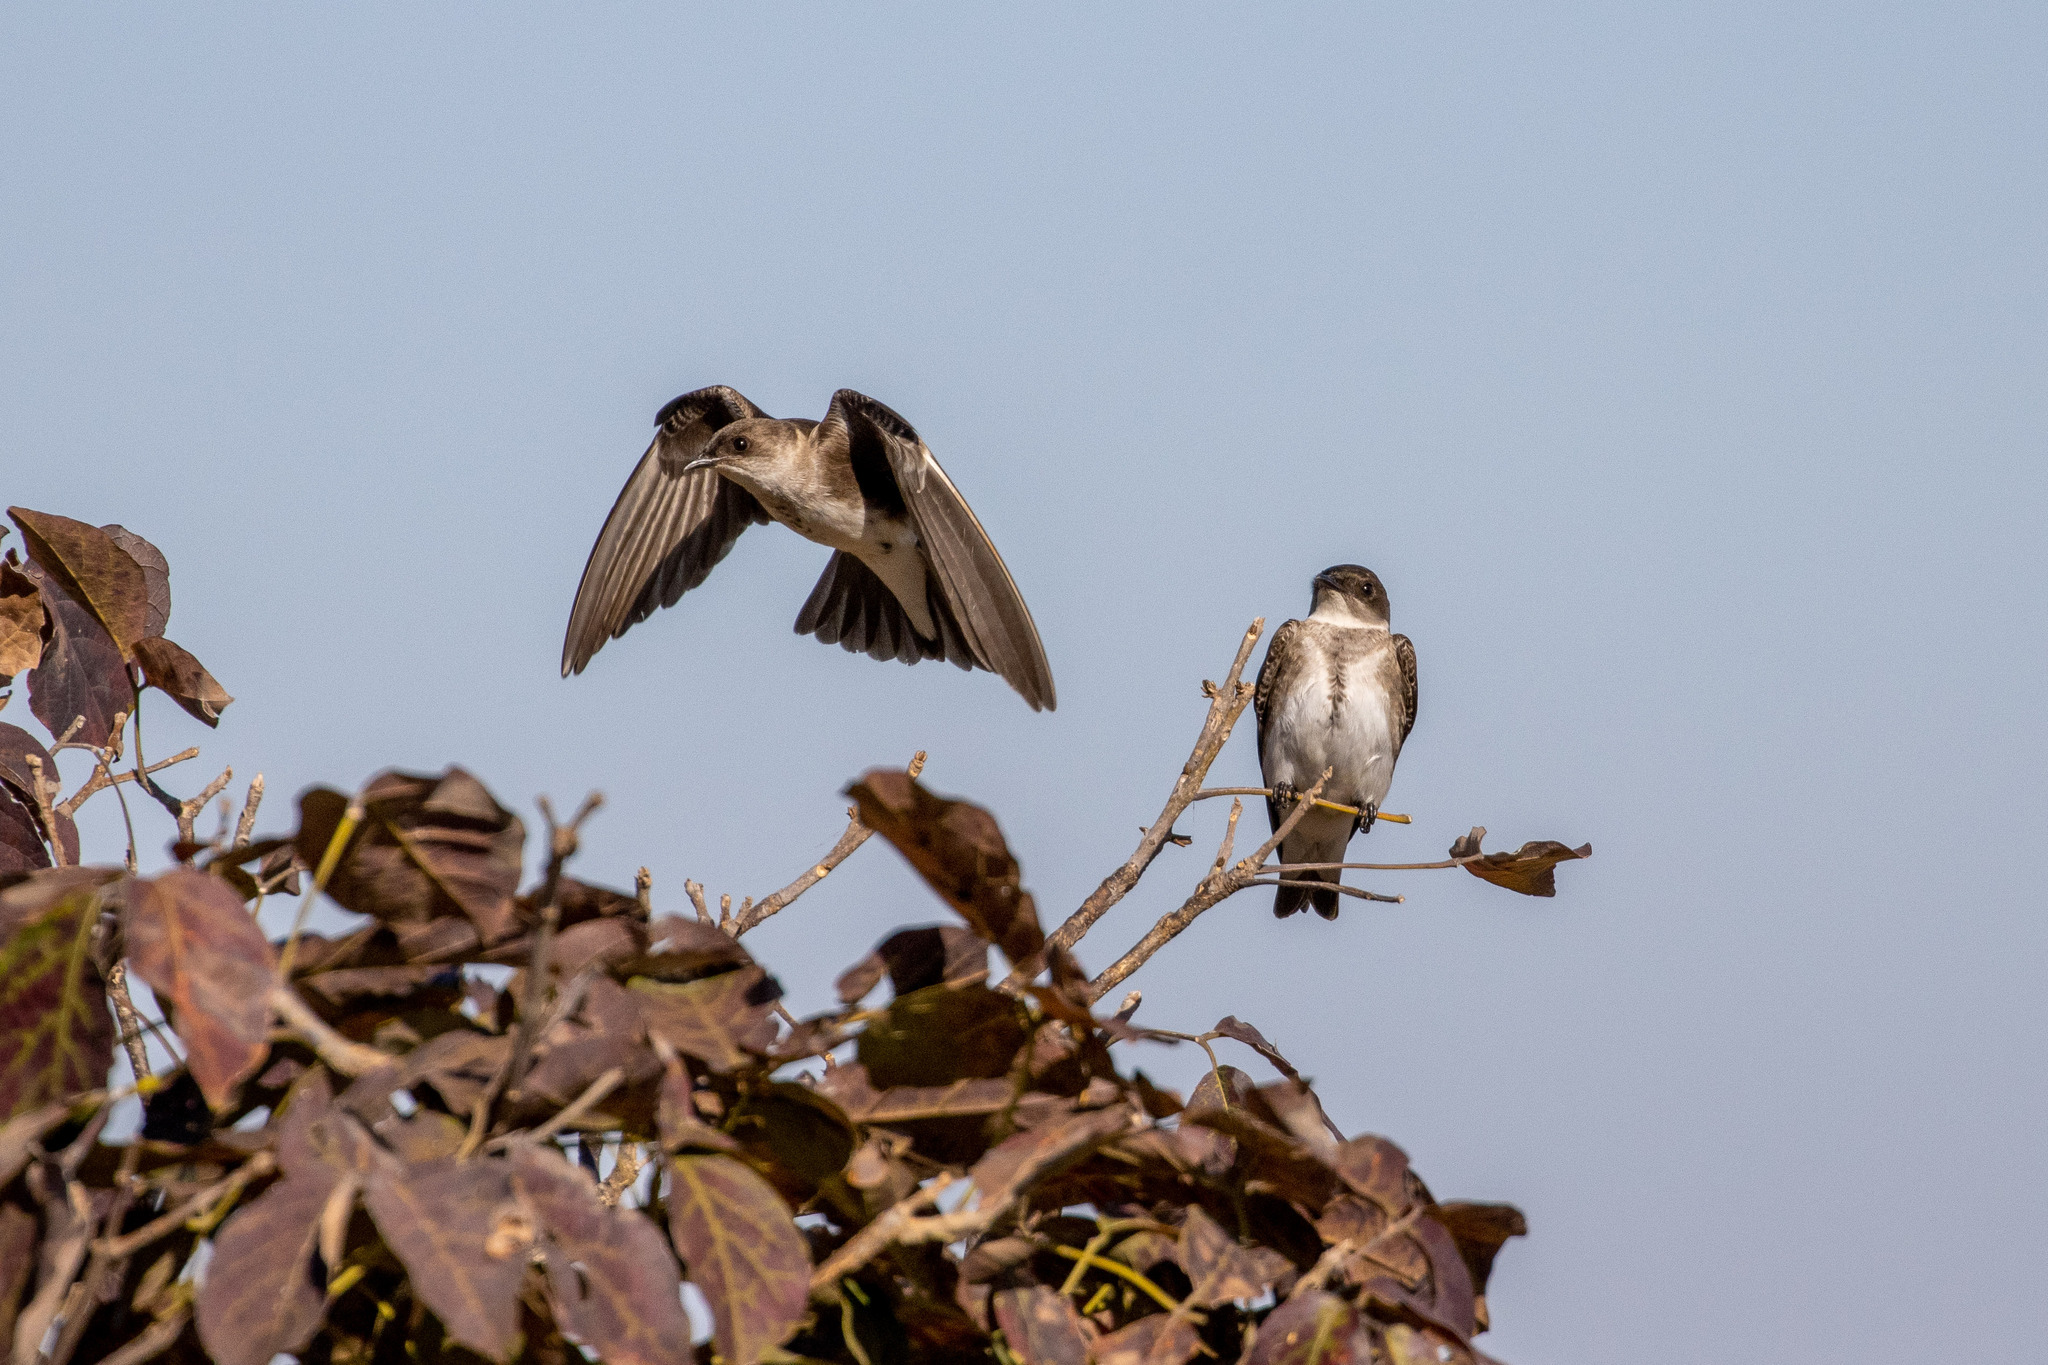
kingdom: Animalia
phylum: Chordata
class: Aves
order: Passeriformes
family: Hirundinidae
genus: Progne
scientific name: Progne tapera
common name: Brown-chested martin
